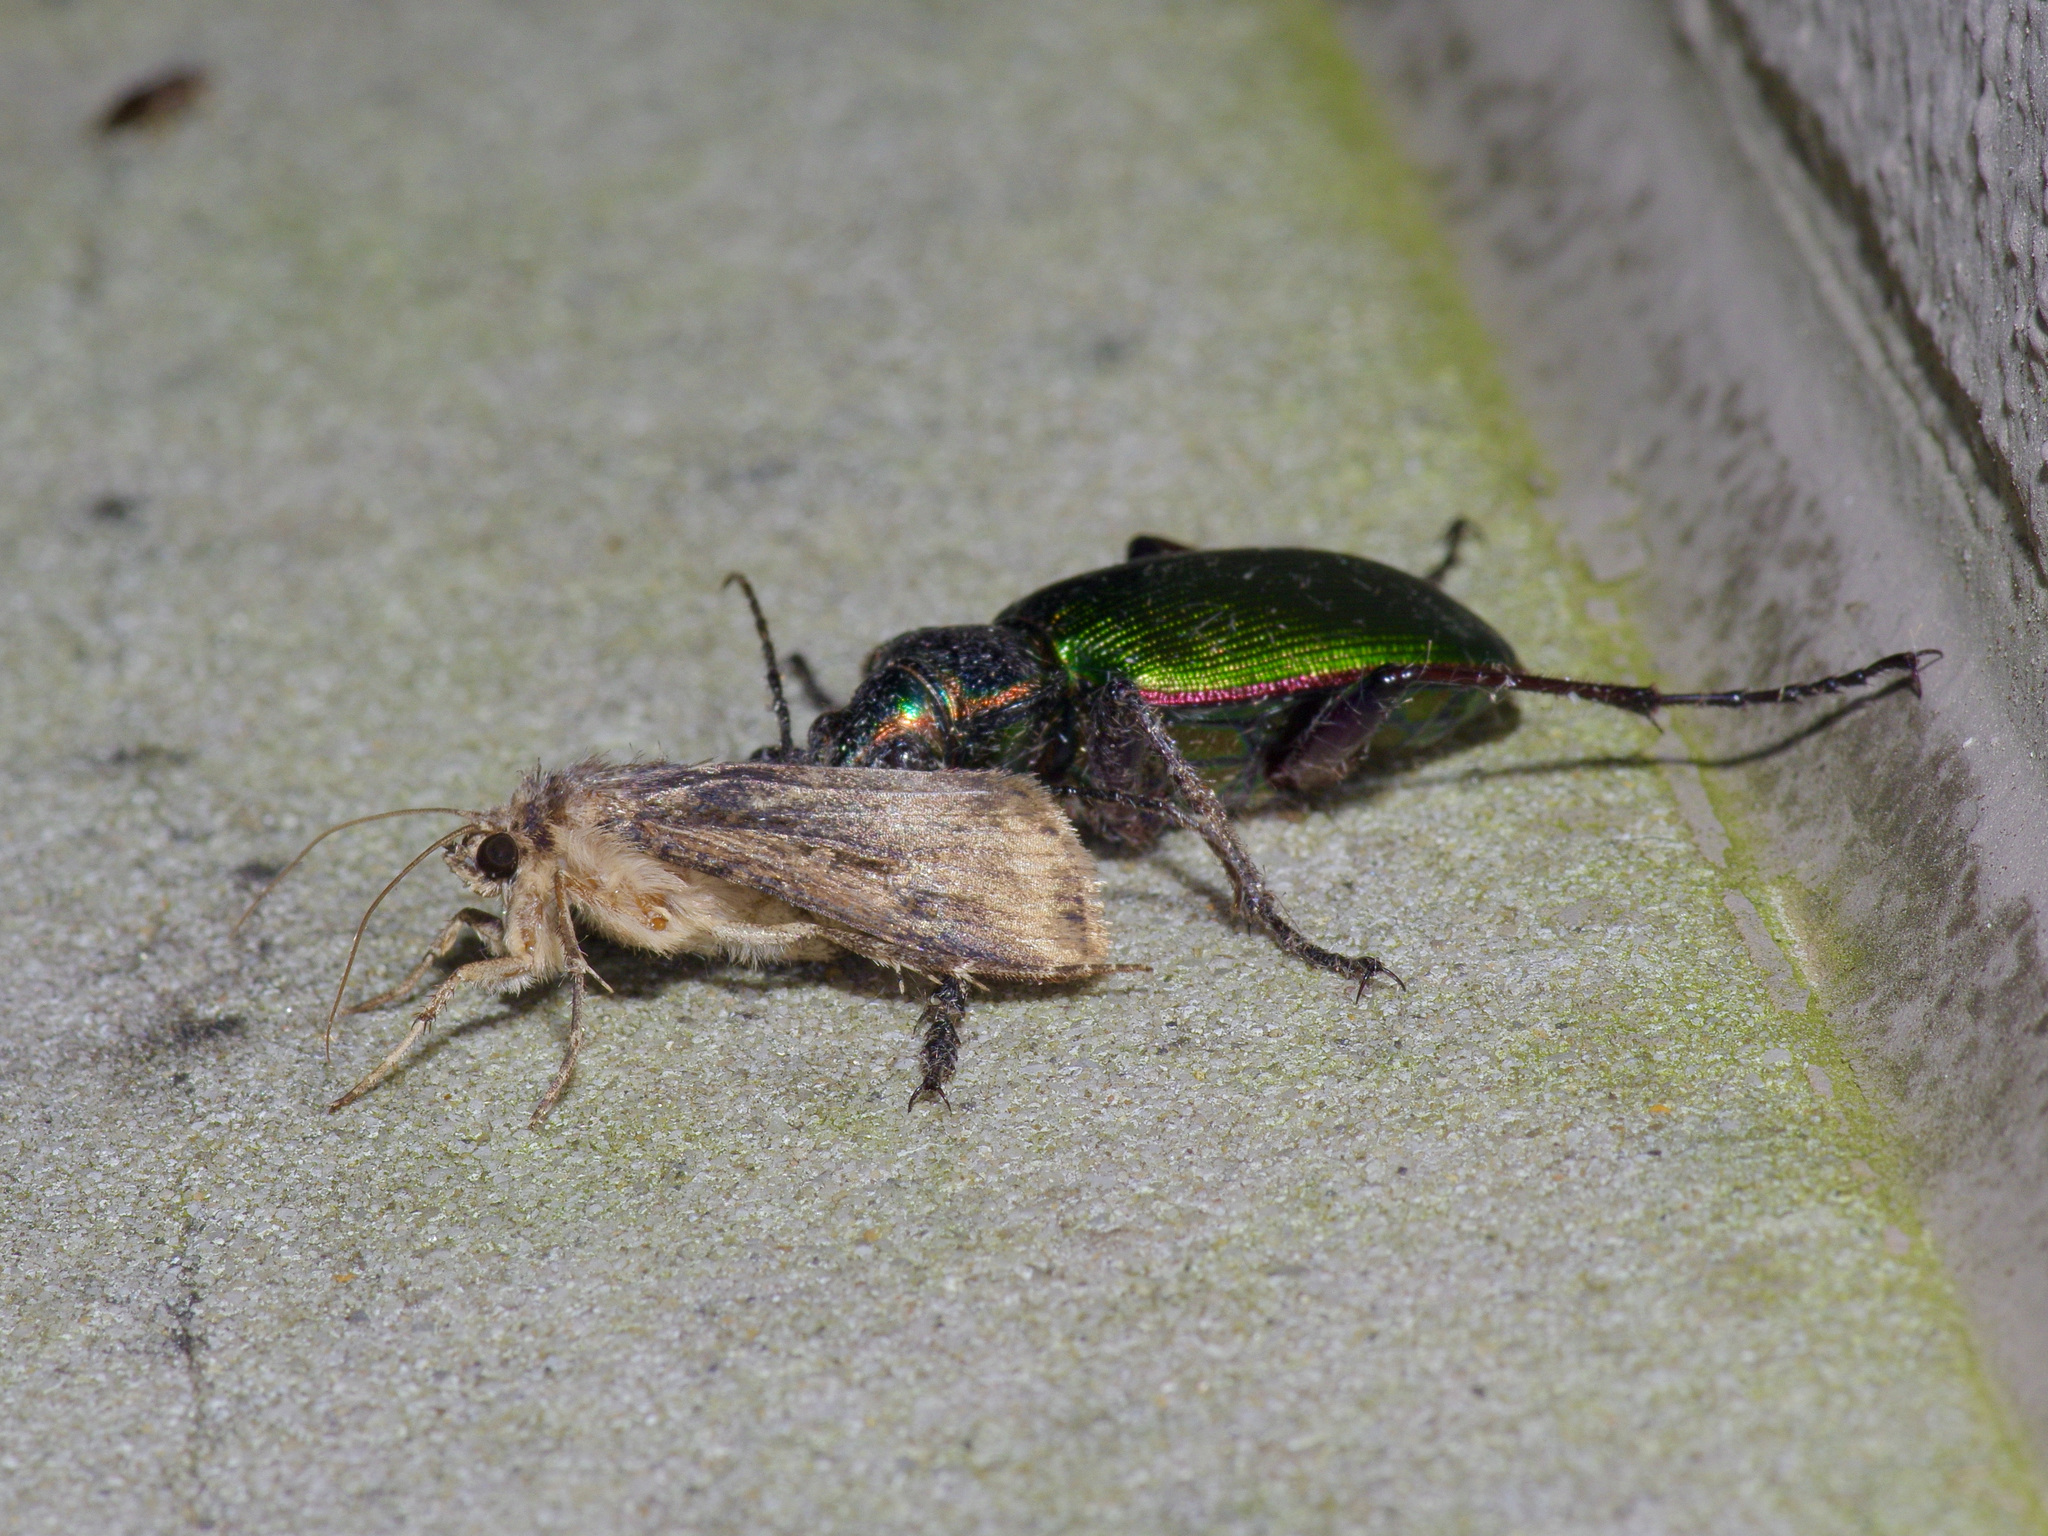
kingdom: Animalia
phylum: Arthropoda
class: Insecta
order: Coleoptera
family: Carabidae
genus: Calosoma
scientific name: Calosoma scrutator
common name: Fiery searcher beetle
